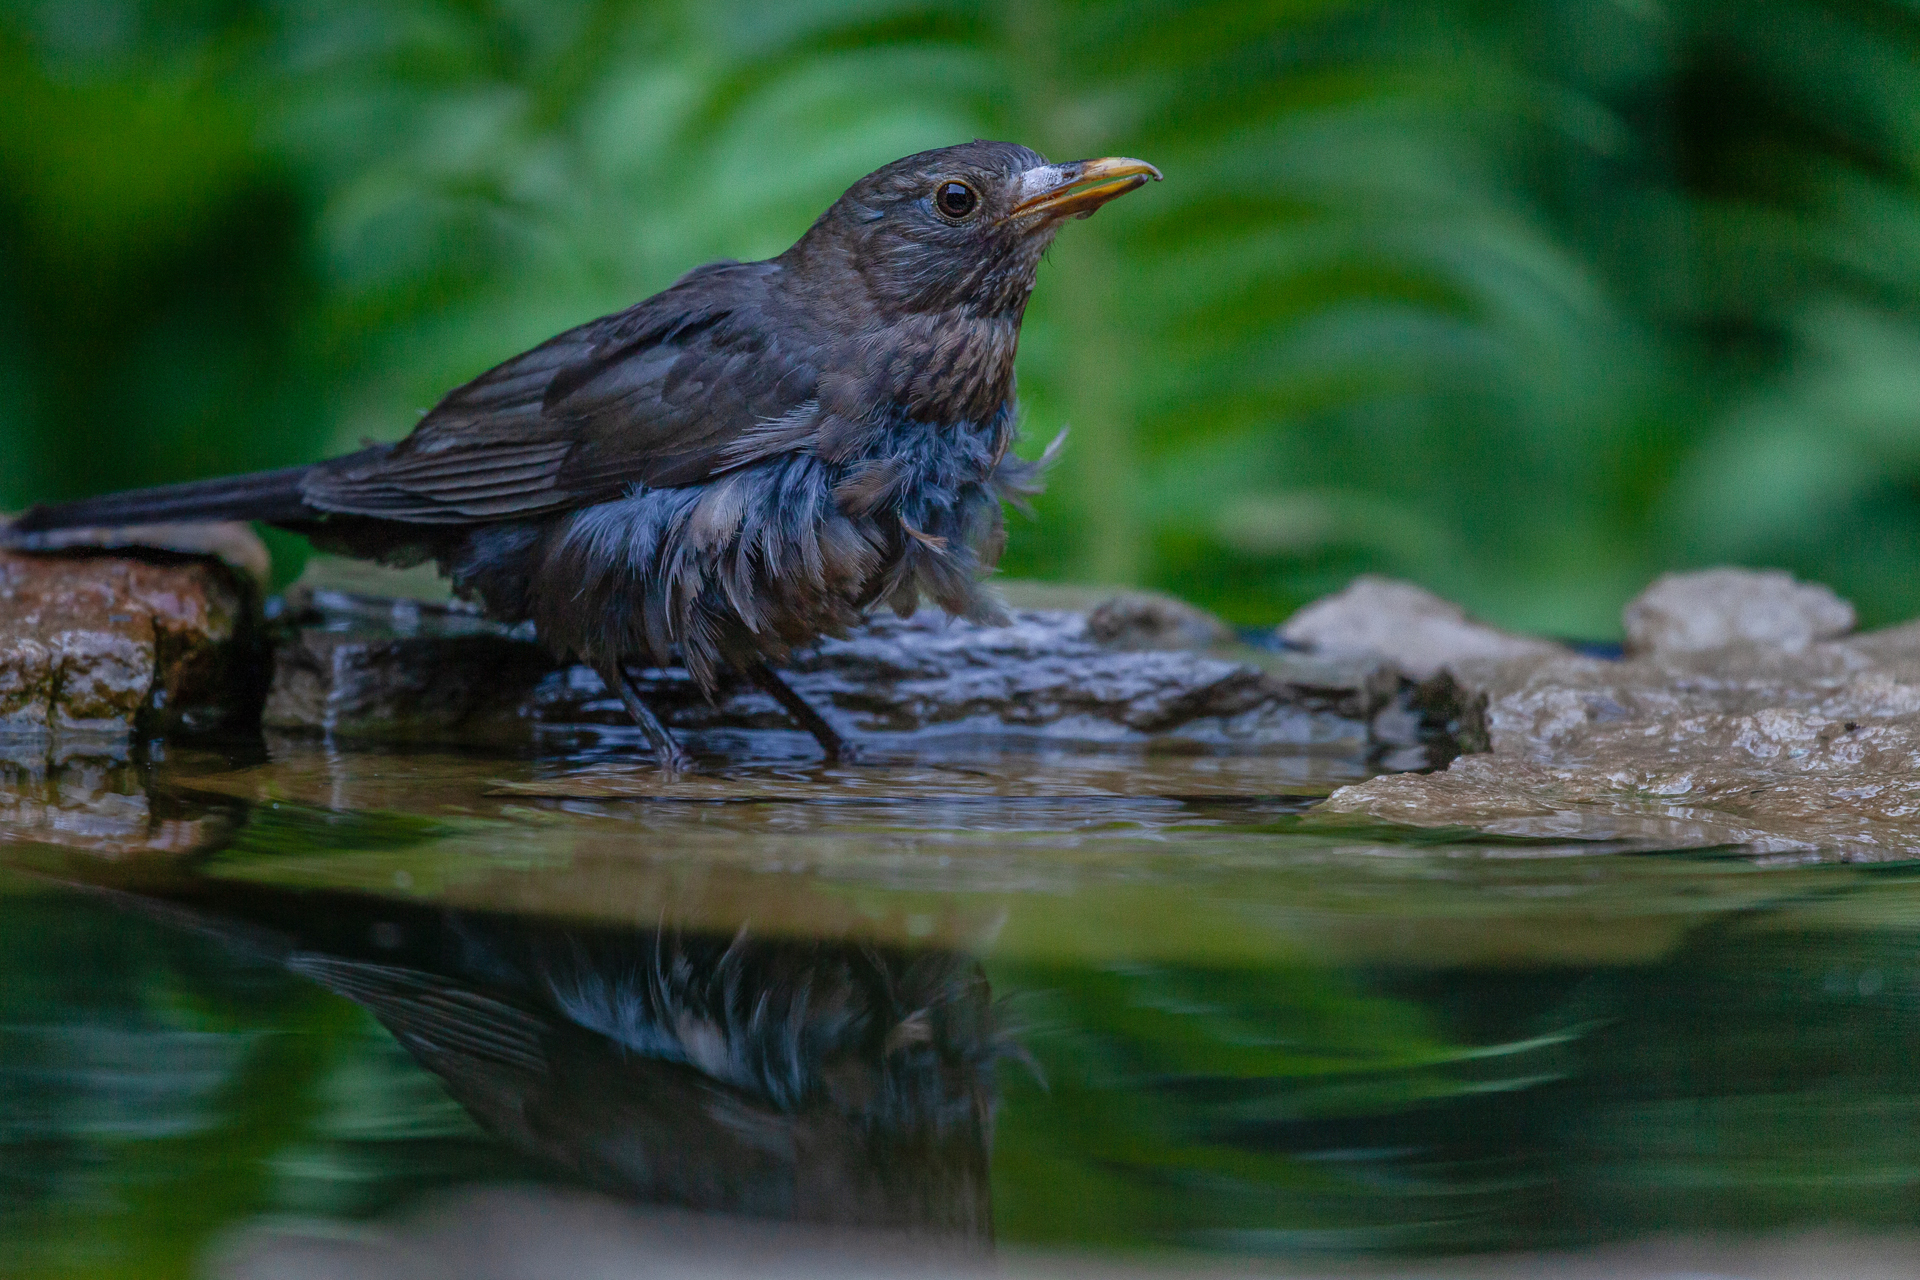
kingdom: Animalia
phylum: Chordata
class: Aves
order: Passeriformes
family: Turdidae
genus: Turdus
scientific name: Turdus merula
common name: Common blackbird
